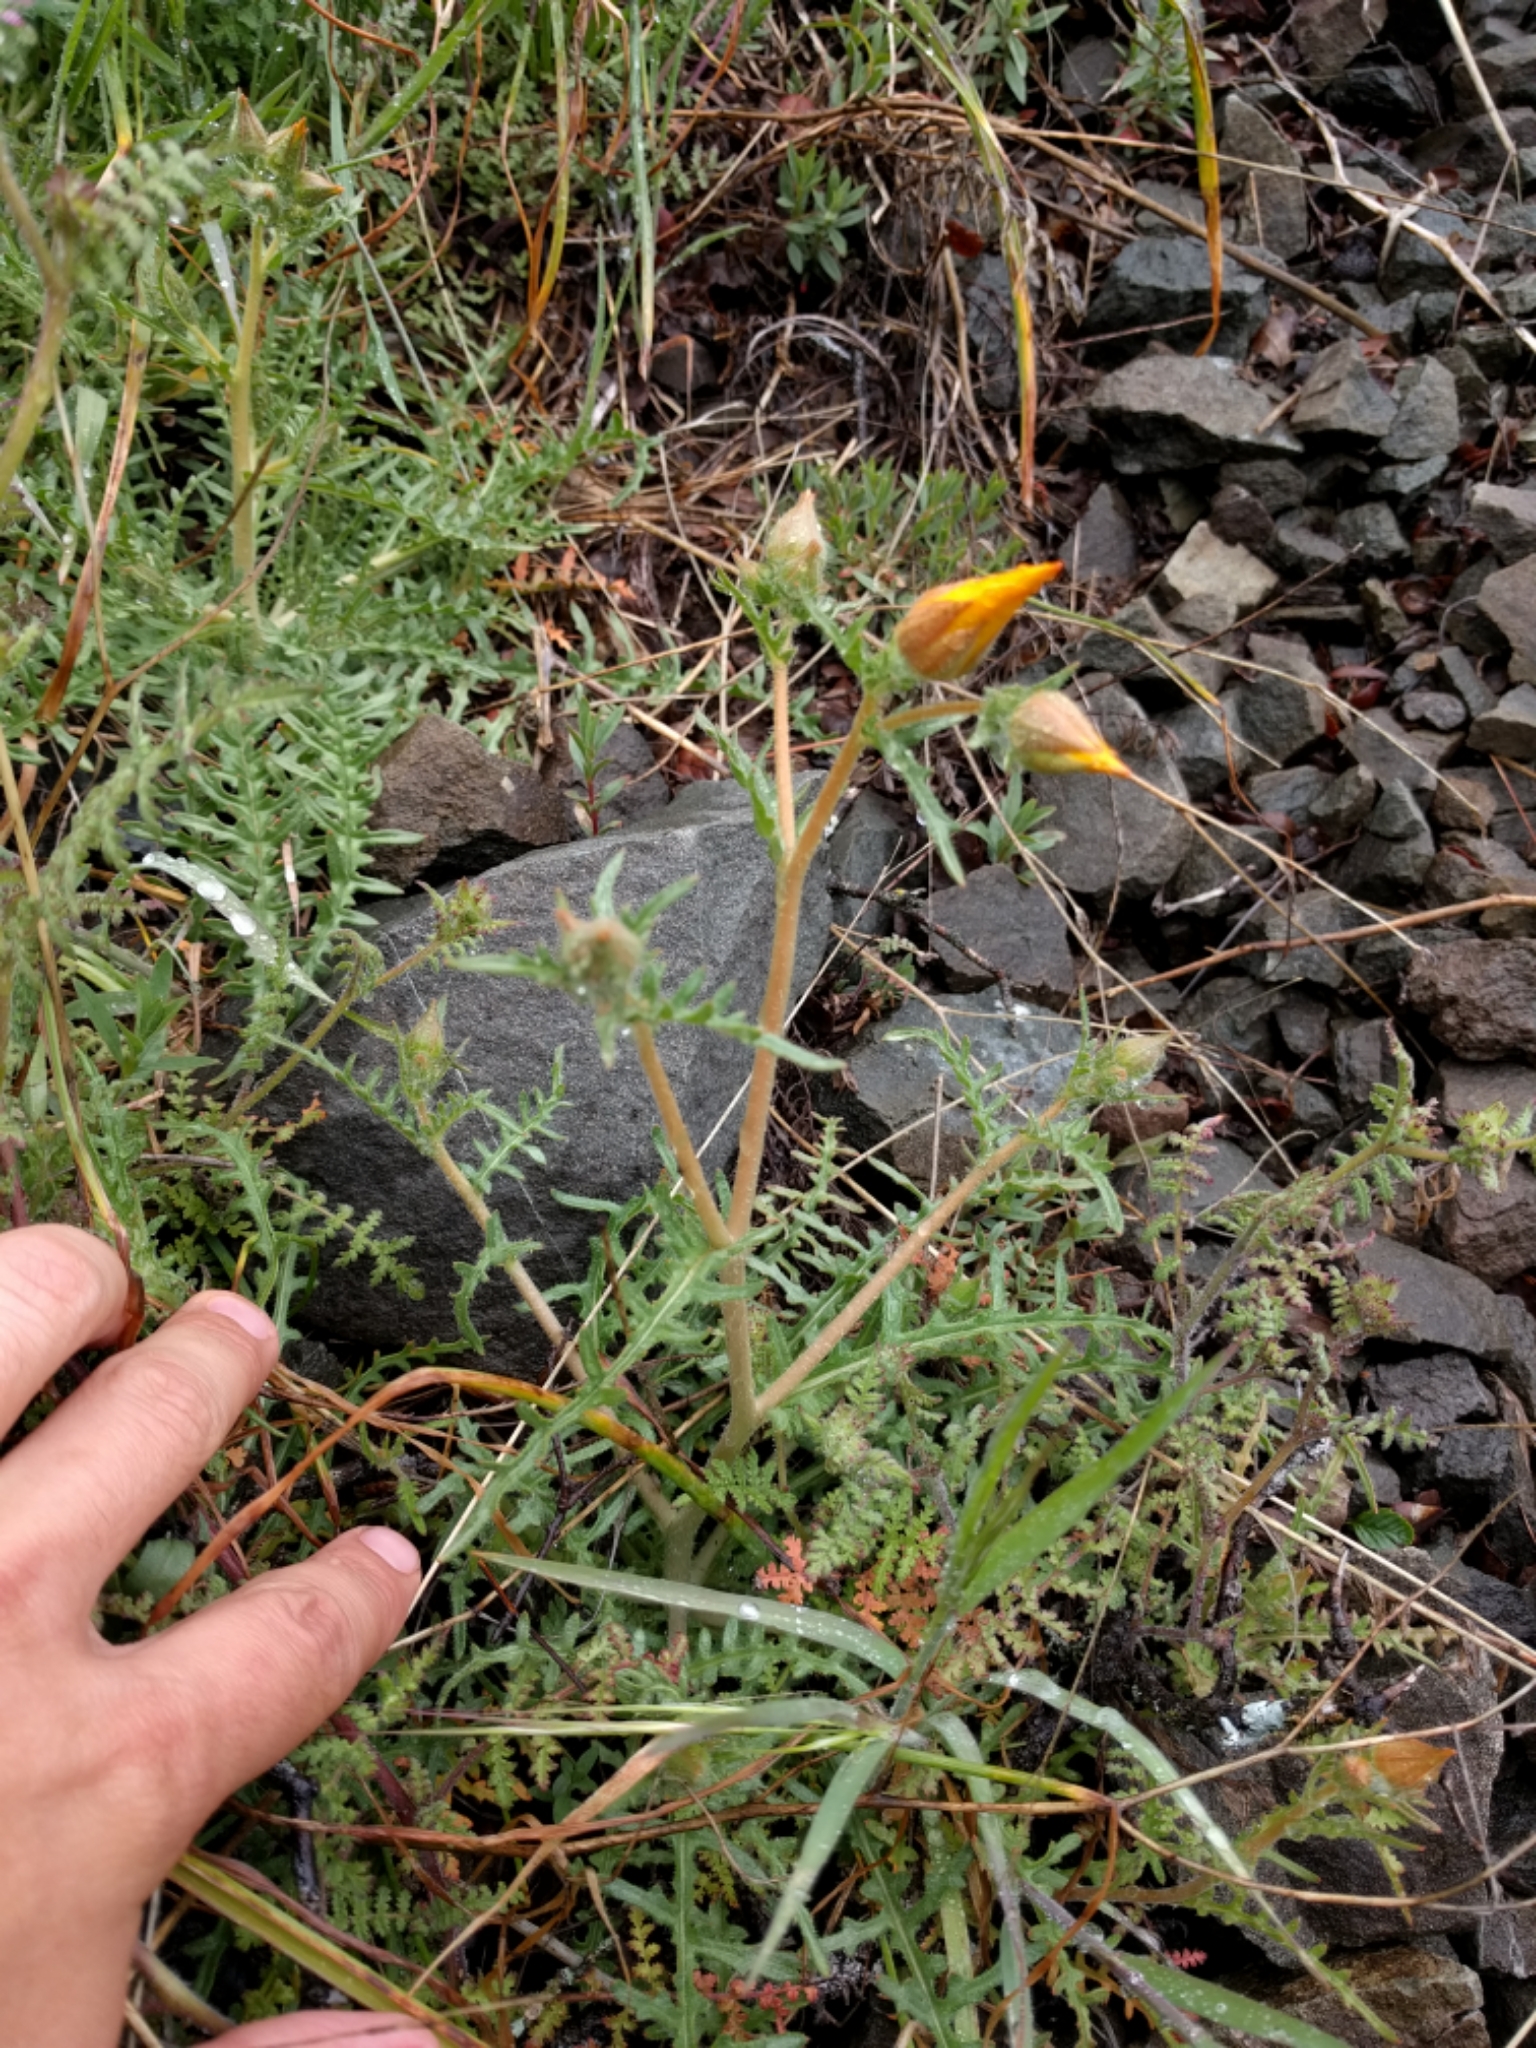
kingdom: Plantae
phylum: Tracheophyta
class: Magnoliopsida
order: Cornales
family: Loasaceae
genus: Mentzelia
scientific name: Mentzelia lindleyi
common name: Golden bartonia
